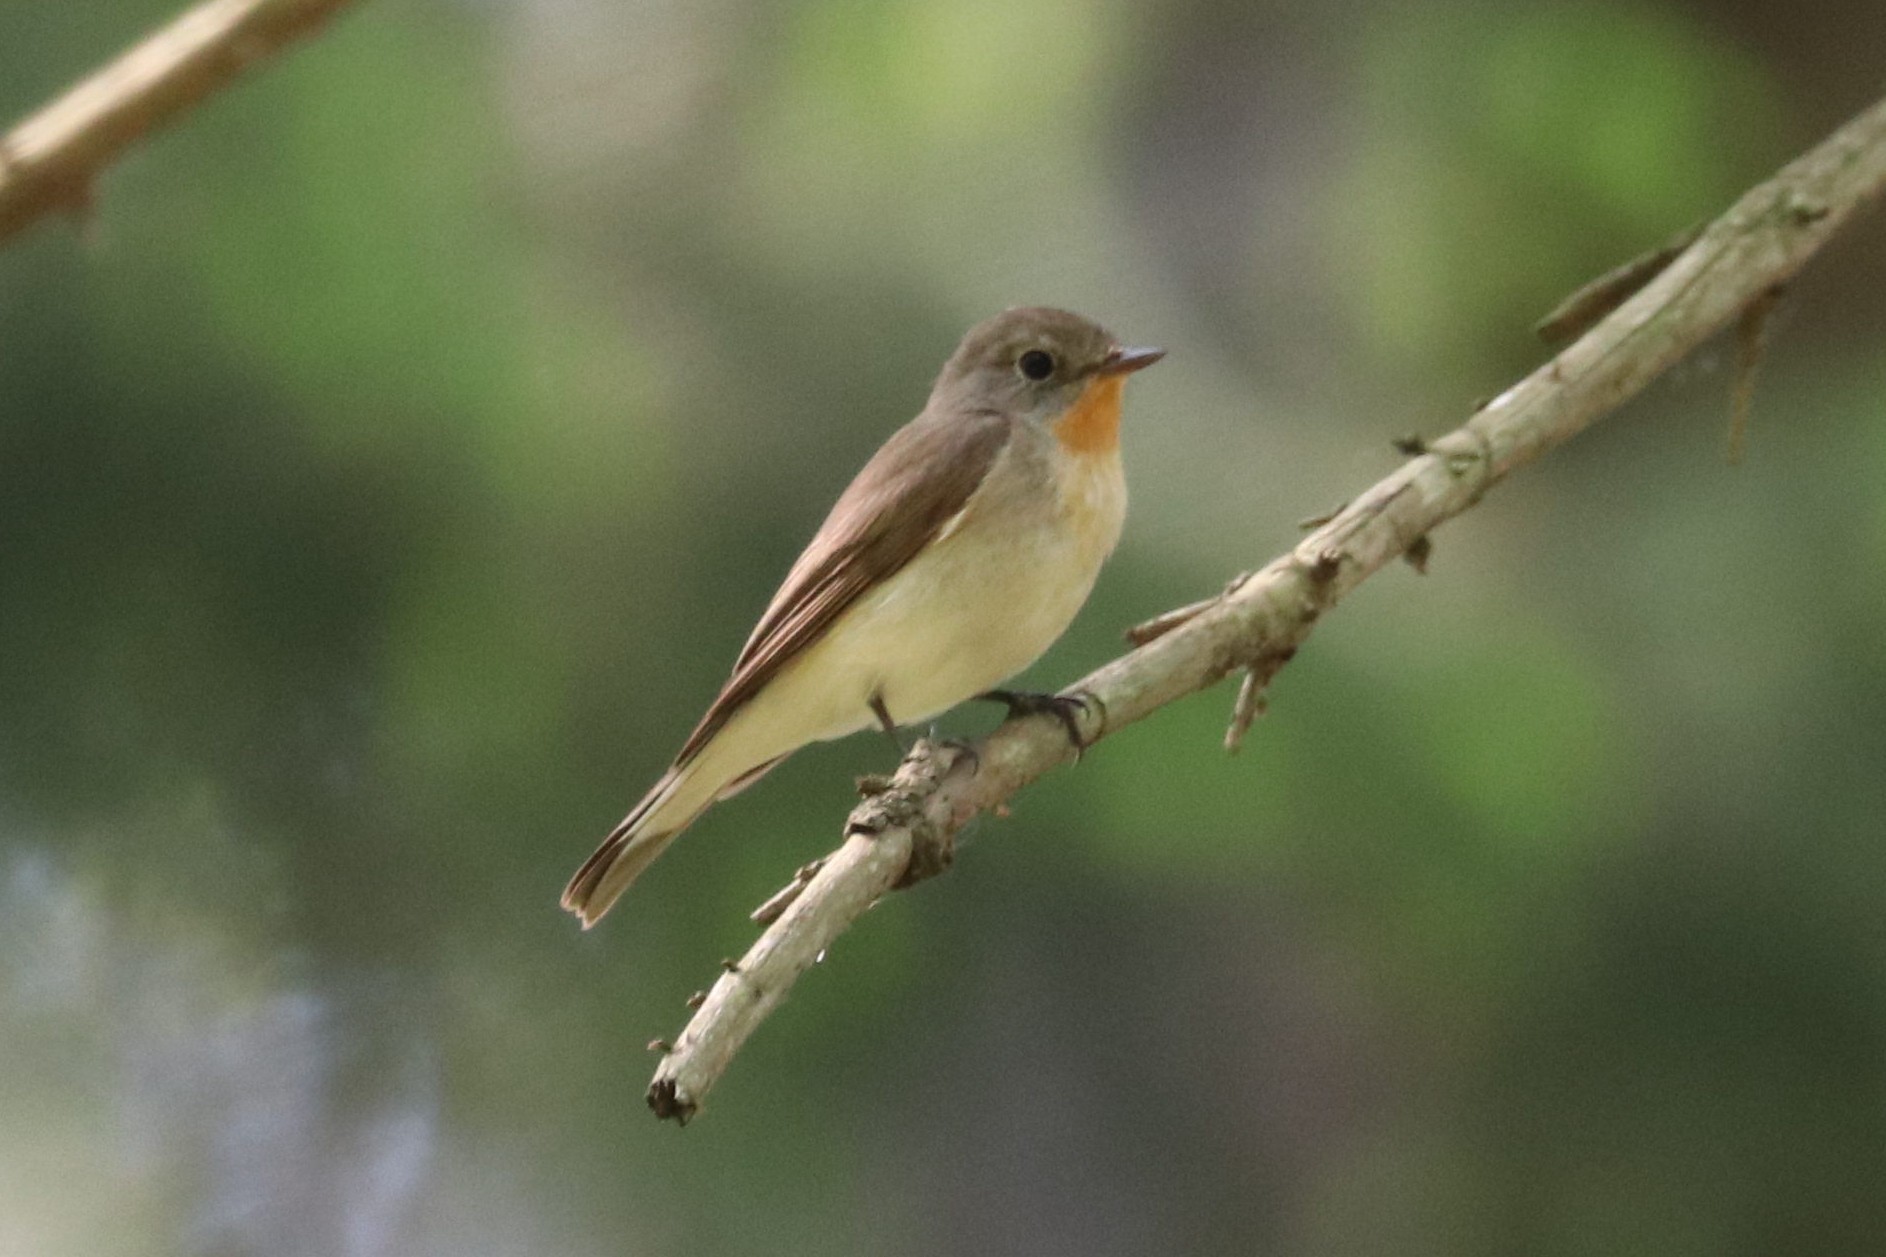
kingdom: Animalia
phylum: Chordata
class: Aves
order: Passeriformes
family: Muscicapidae
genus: Ficedula
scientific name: Ficedula parva
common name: Red-breasted flycatcher
